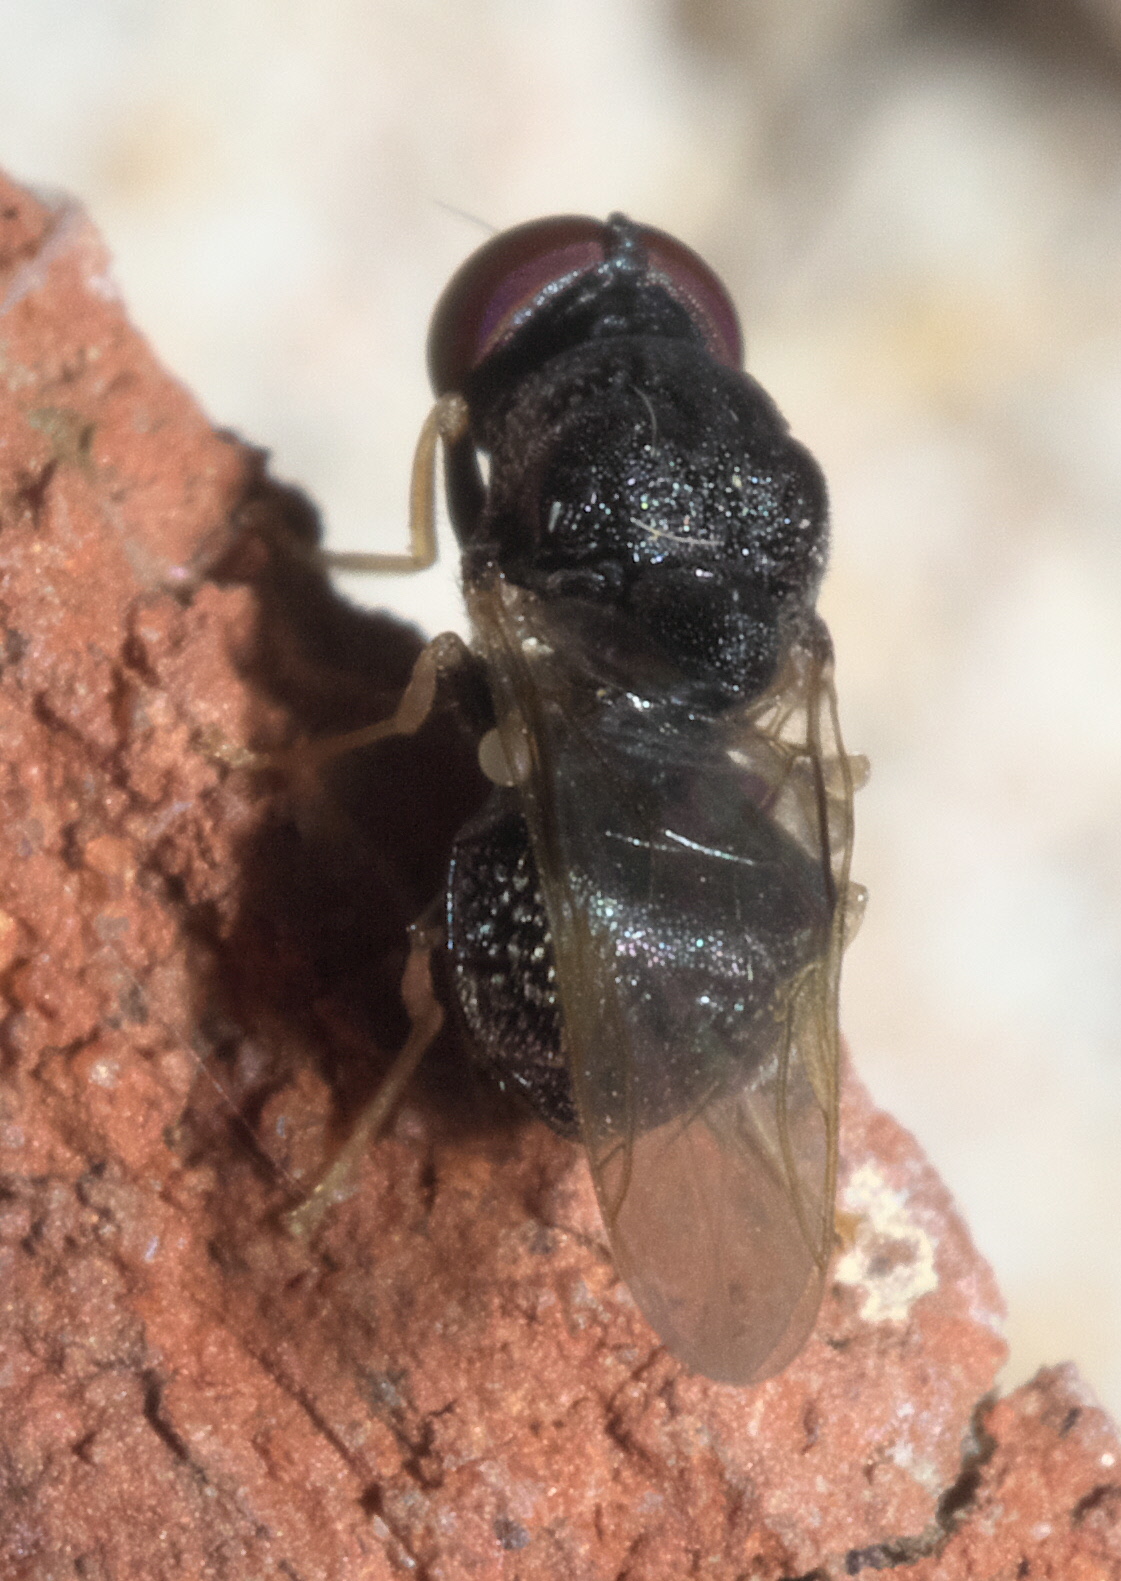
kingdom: Animalia
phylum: Arthropoda
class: Insecta
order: Diptera
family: Stratiomyidae
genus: Gowdeyana
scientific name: Gowdeyana punctifera
